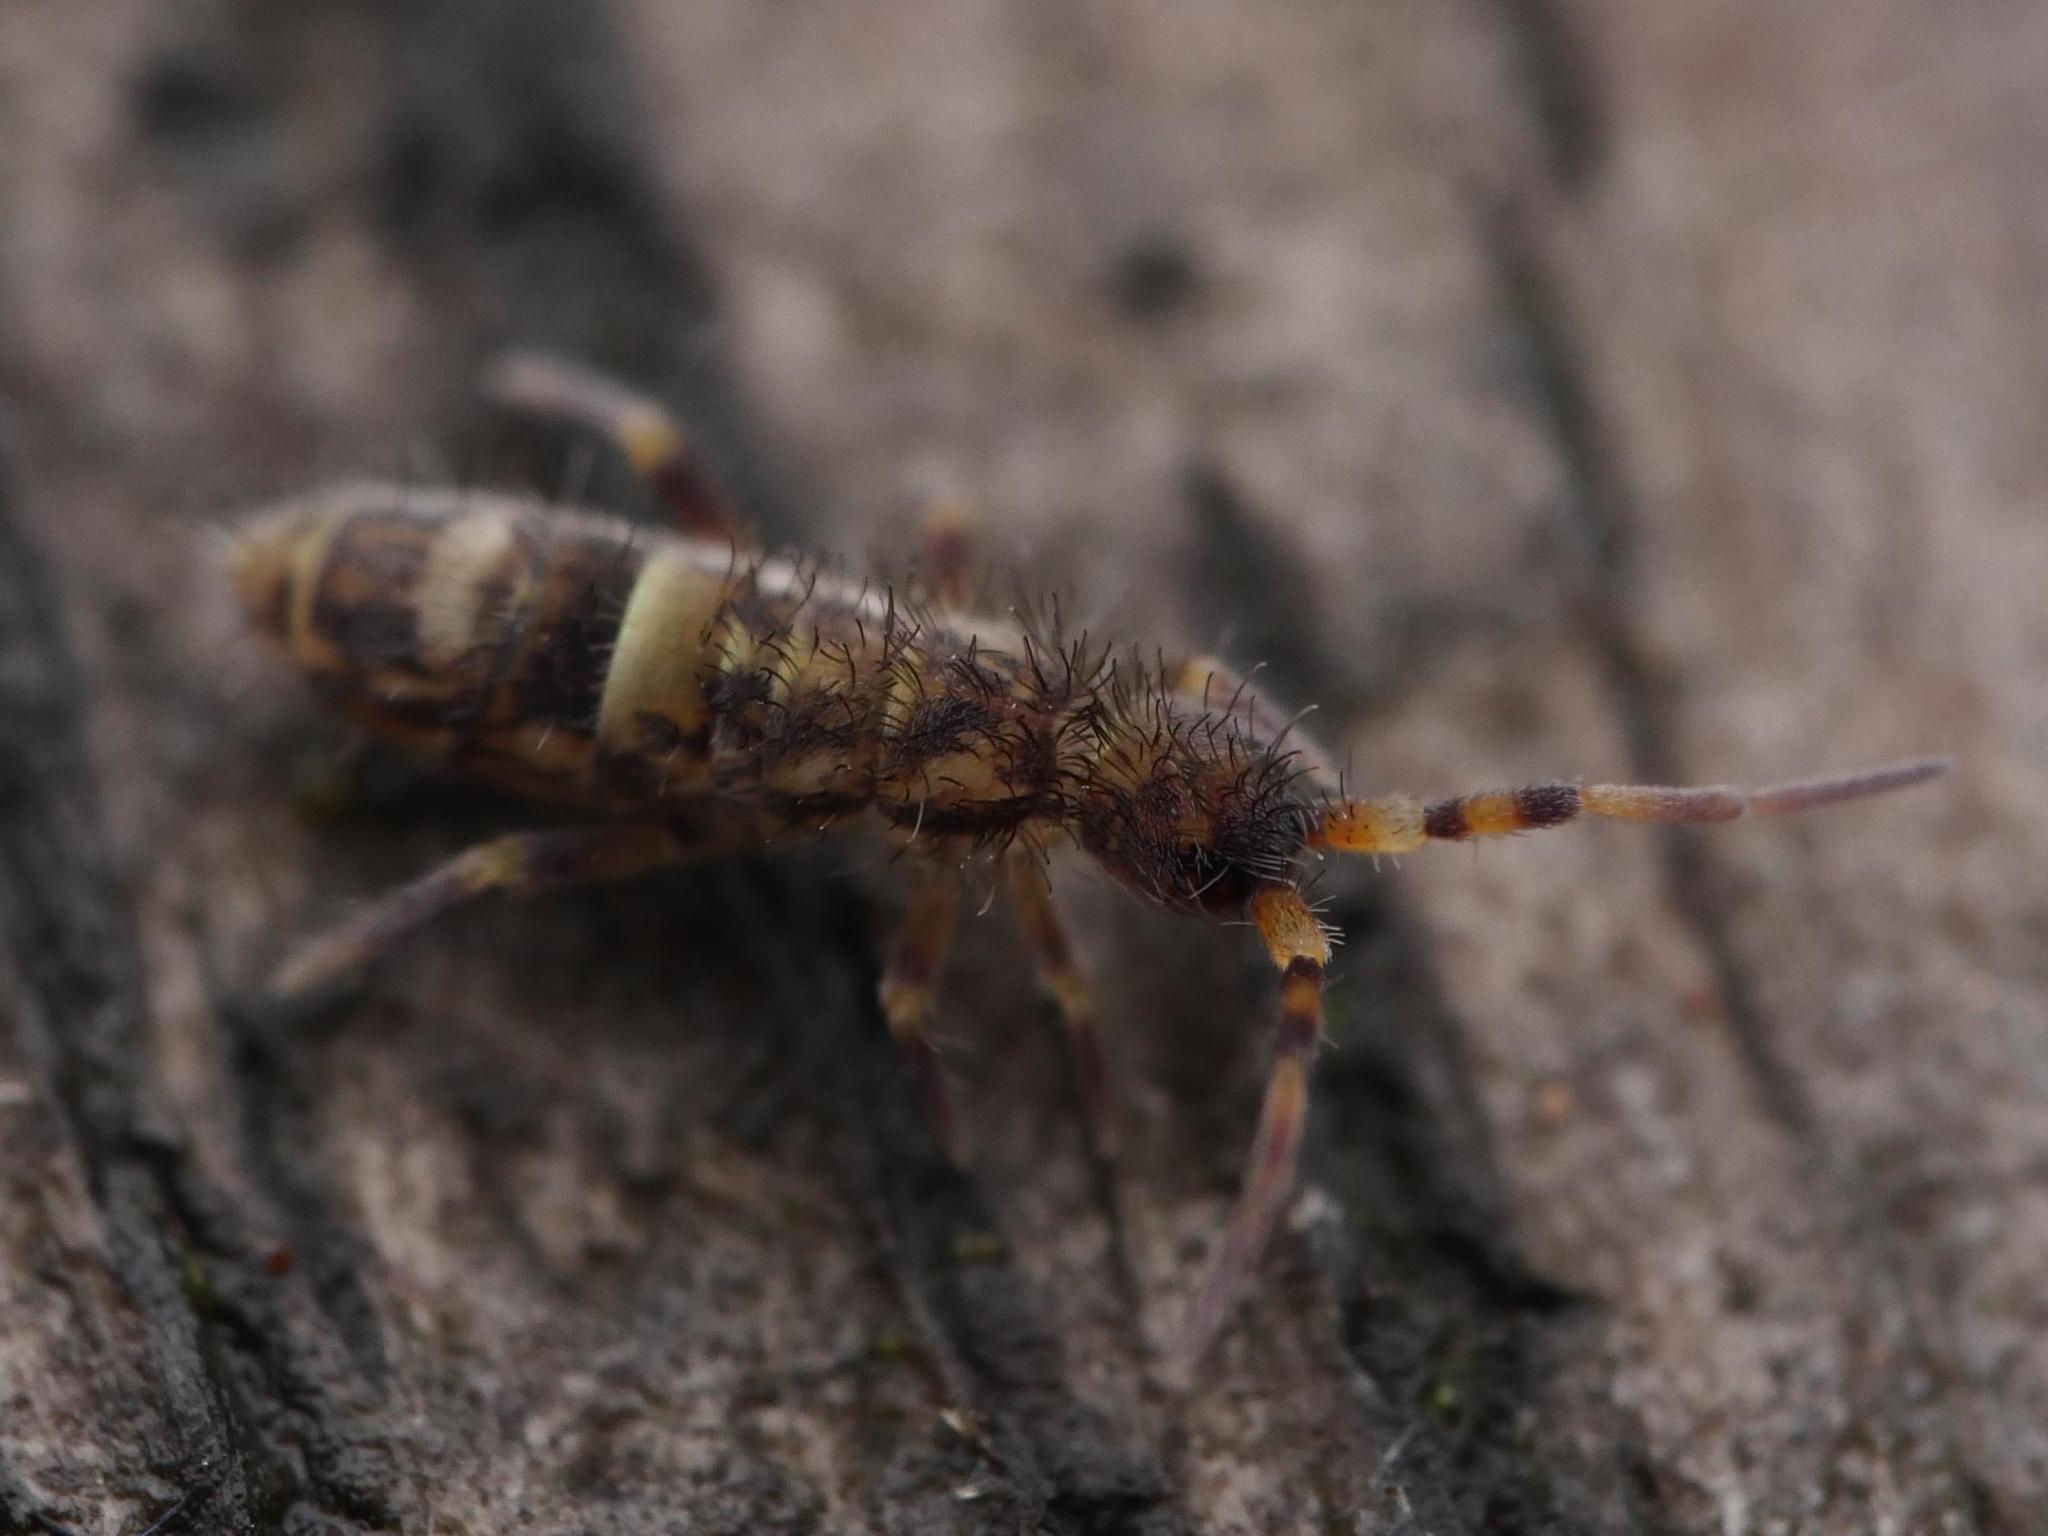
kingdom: Animalia
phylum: Arthropoda
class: Collembola
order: Entomobryomorpha
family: Orchesellidae
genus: Orchesella
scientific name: Orchesella cincta
